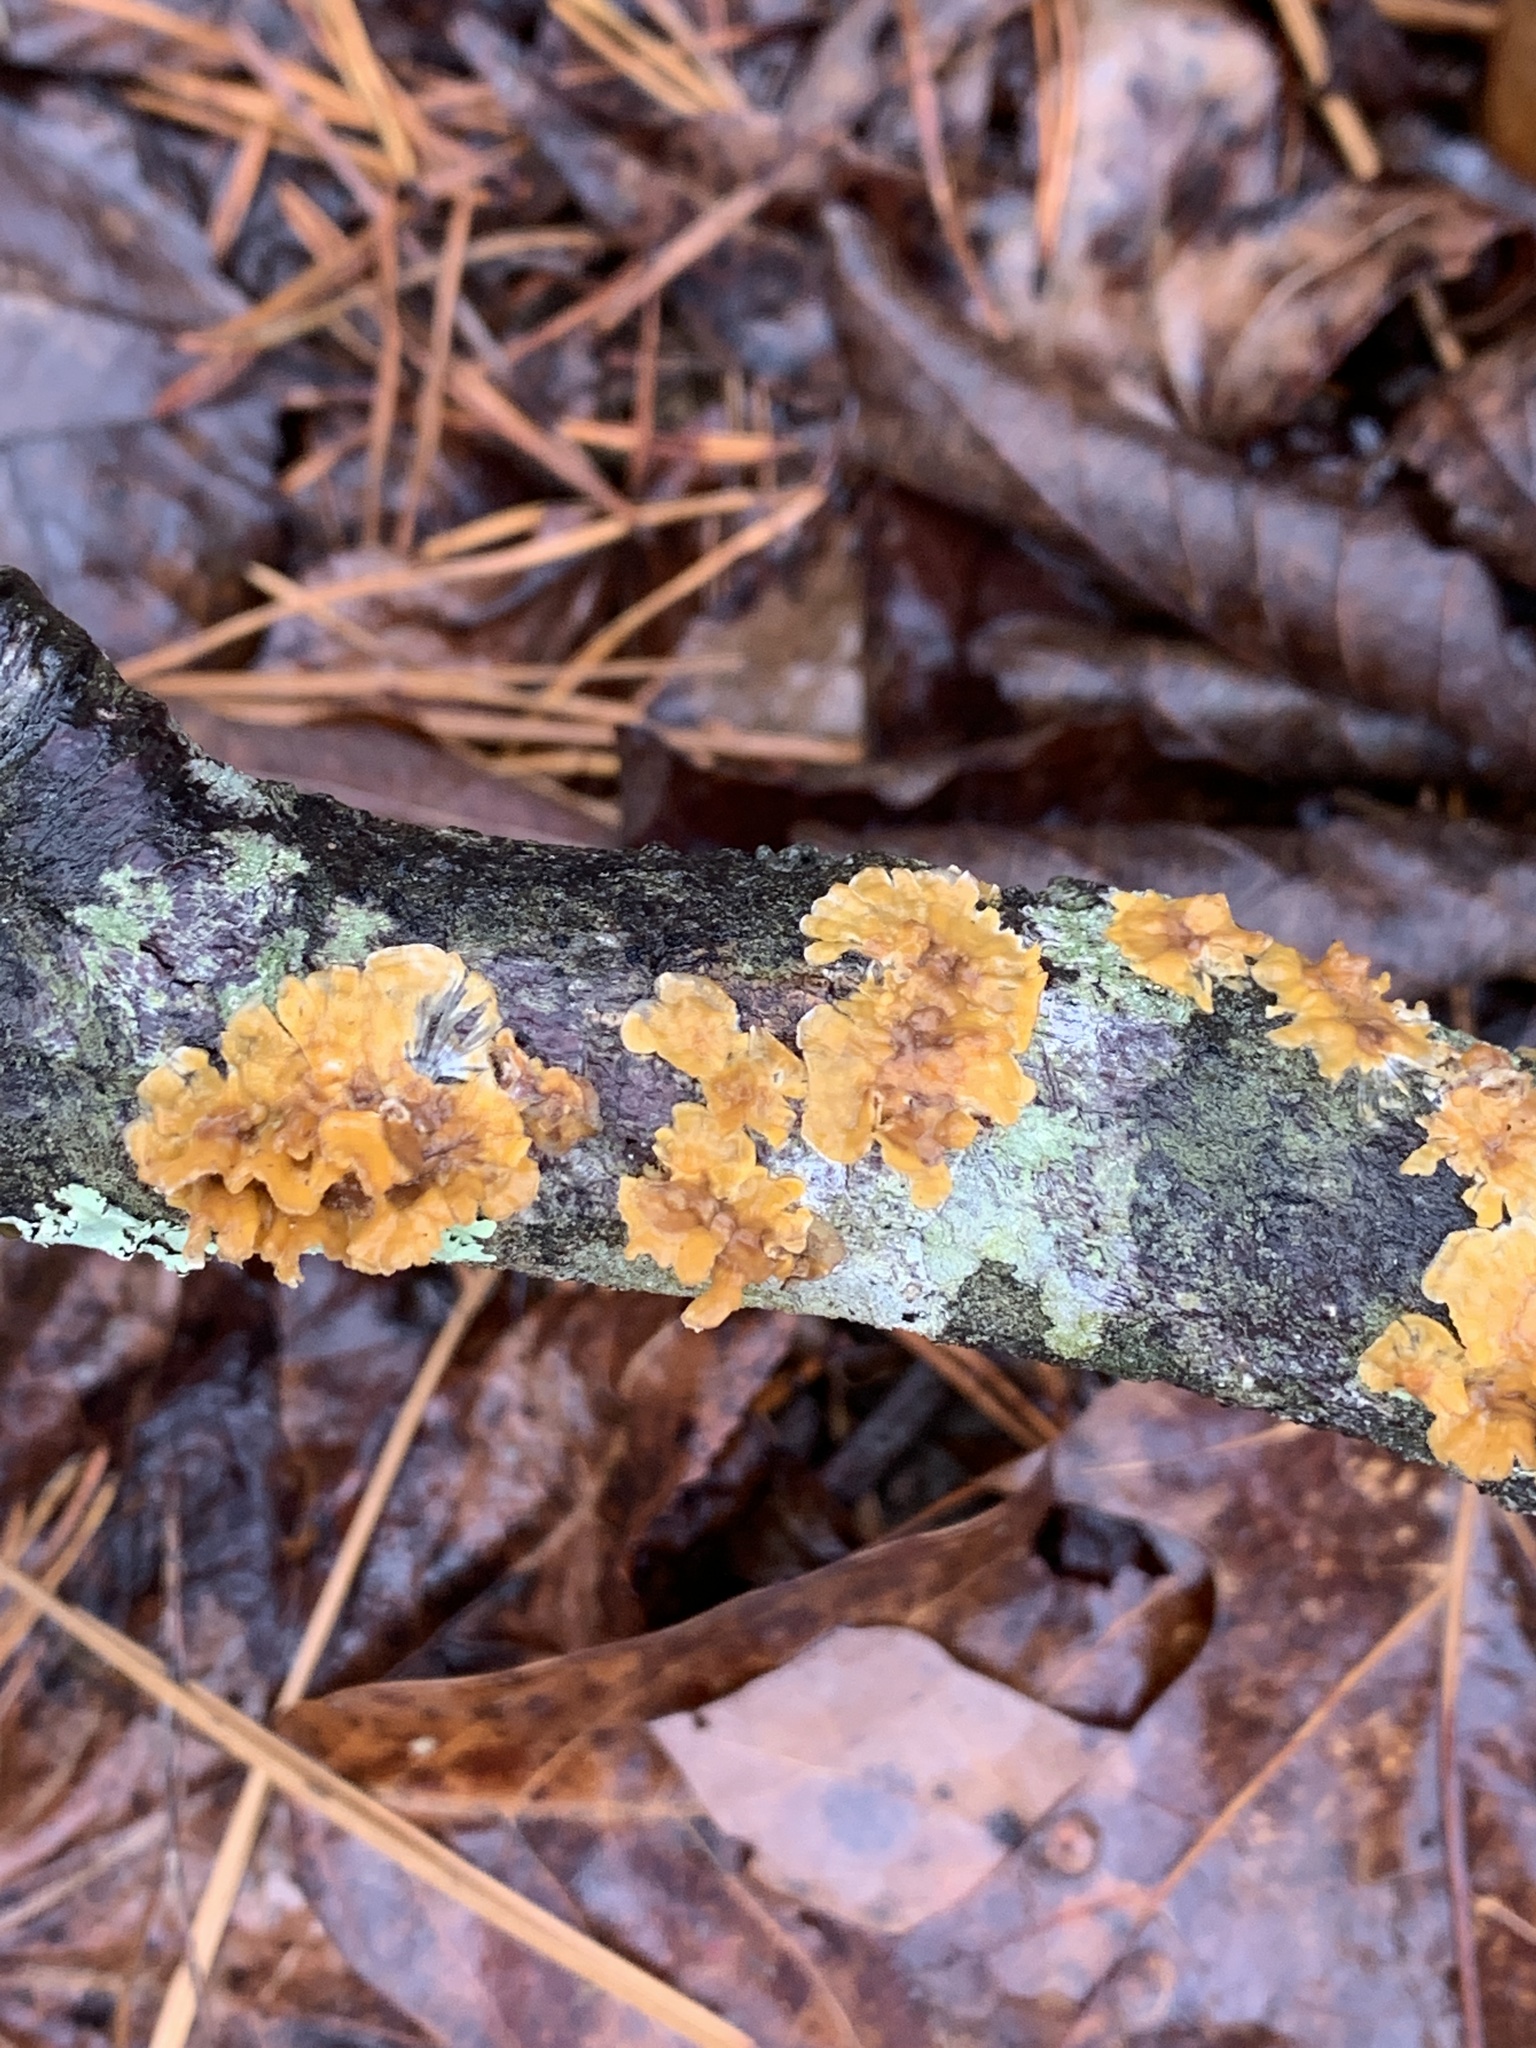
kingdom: Fungi
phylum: Basidiomycota
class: Agaricomycetes
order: Russulales
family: Stereaceae
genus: Stereum
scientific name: Stereum complicatum
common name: Crowded parchment
